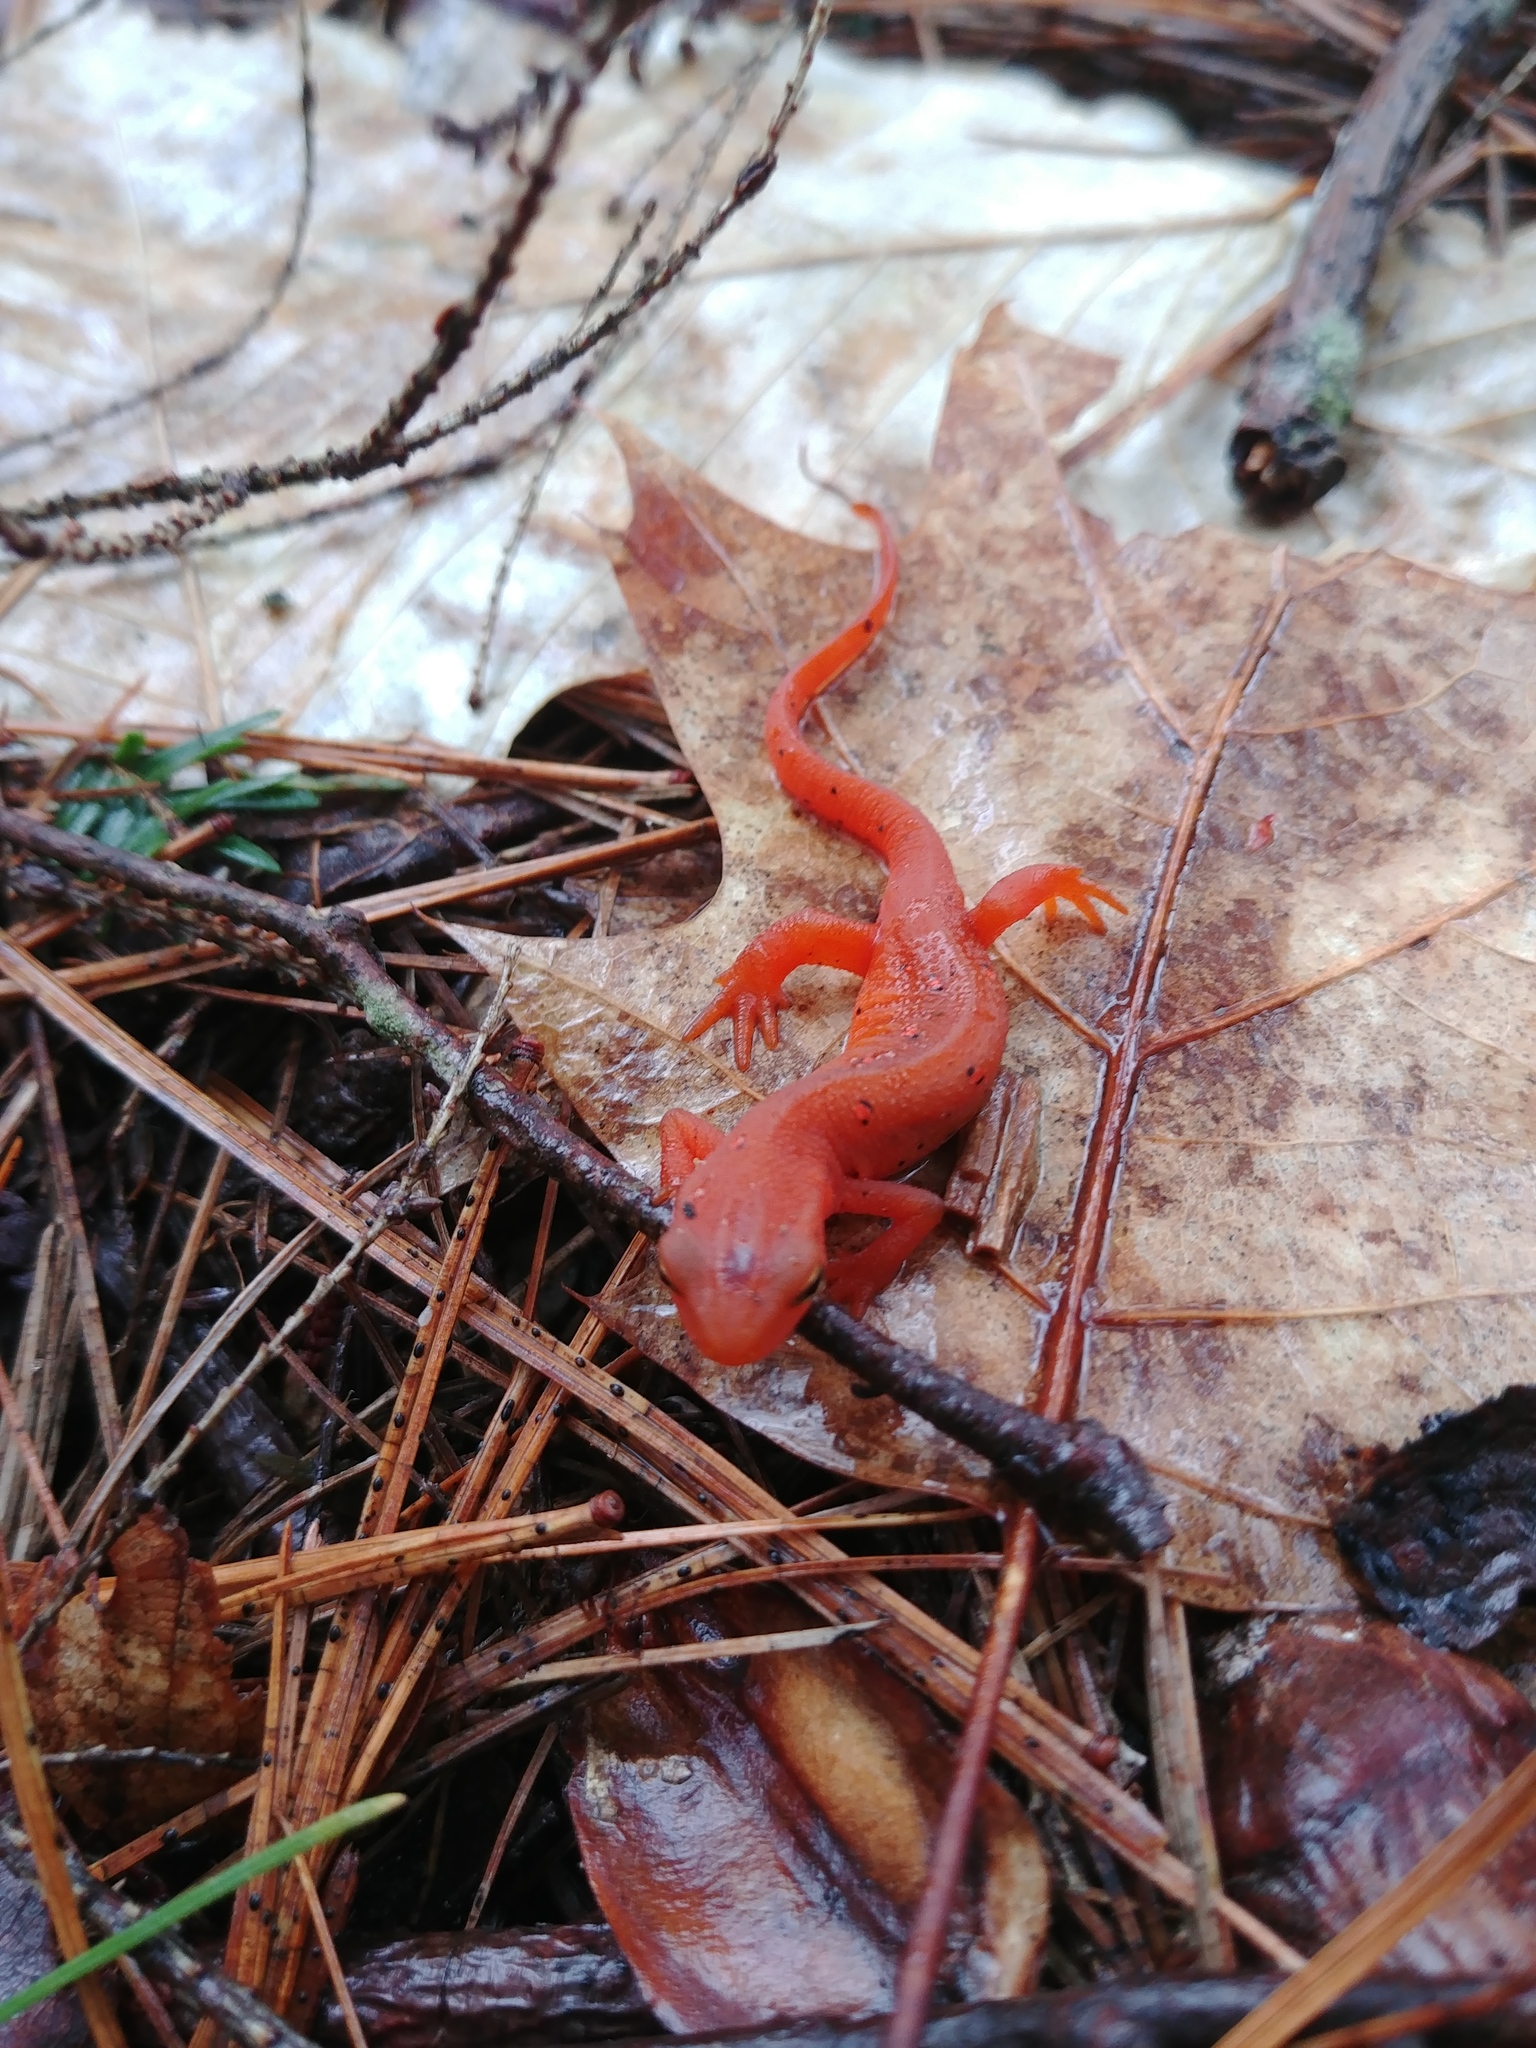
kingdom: Animalia
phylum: Chordata
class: Amphibia
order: Caudata
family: Salamandridae
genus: Notophthalmus
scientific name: Notophthalmus viridescens
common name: Eastern newt
